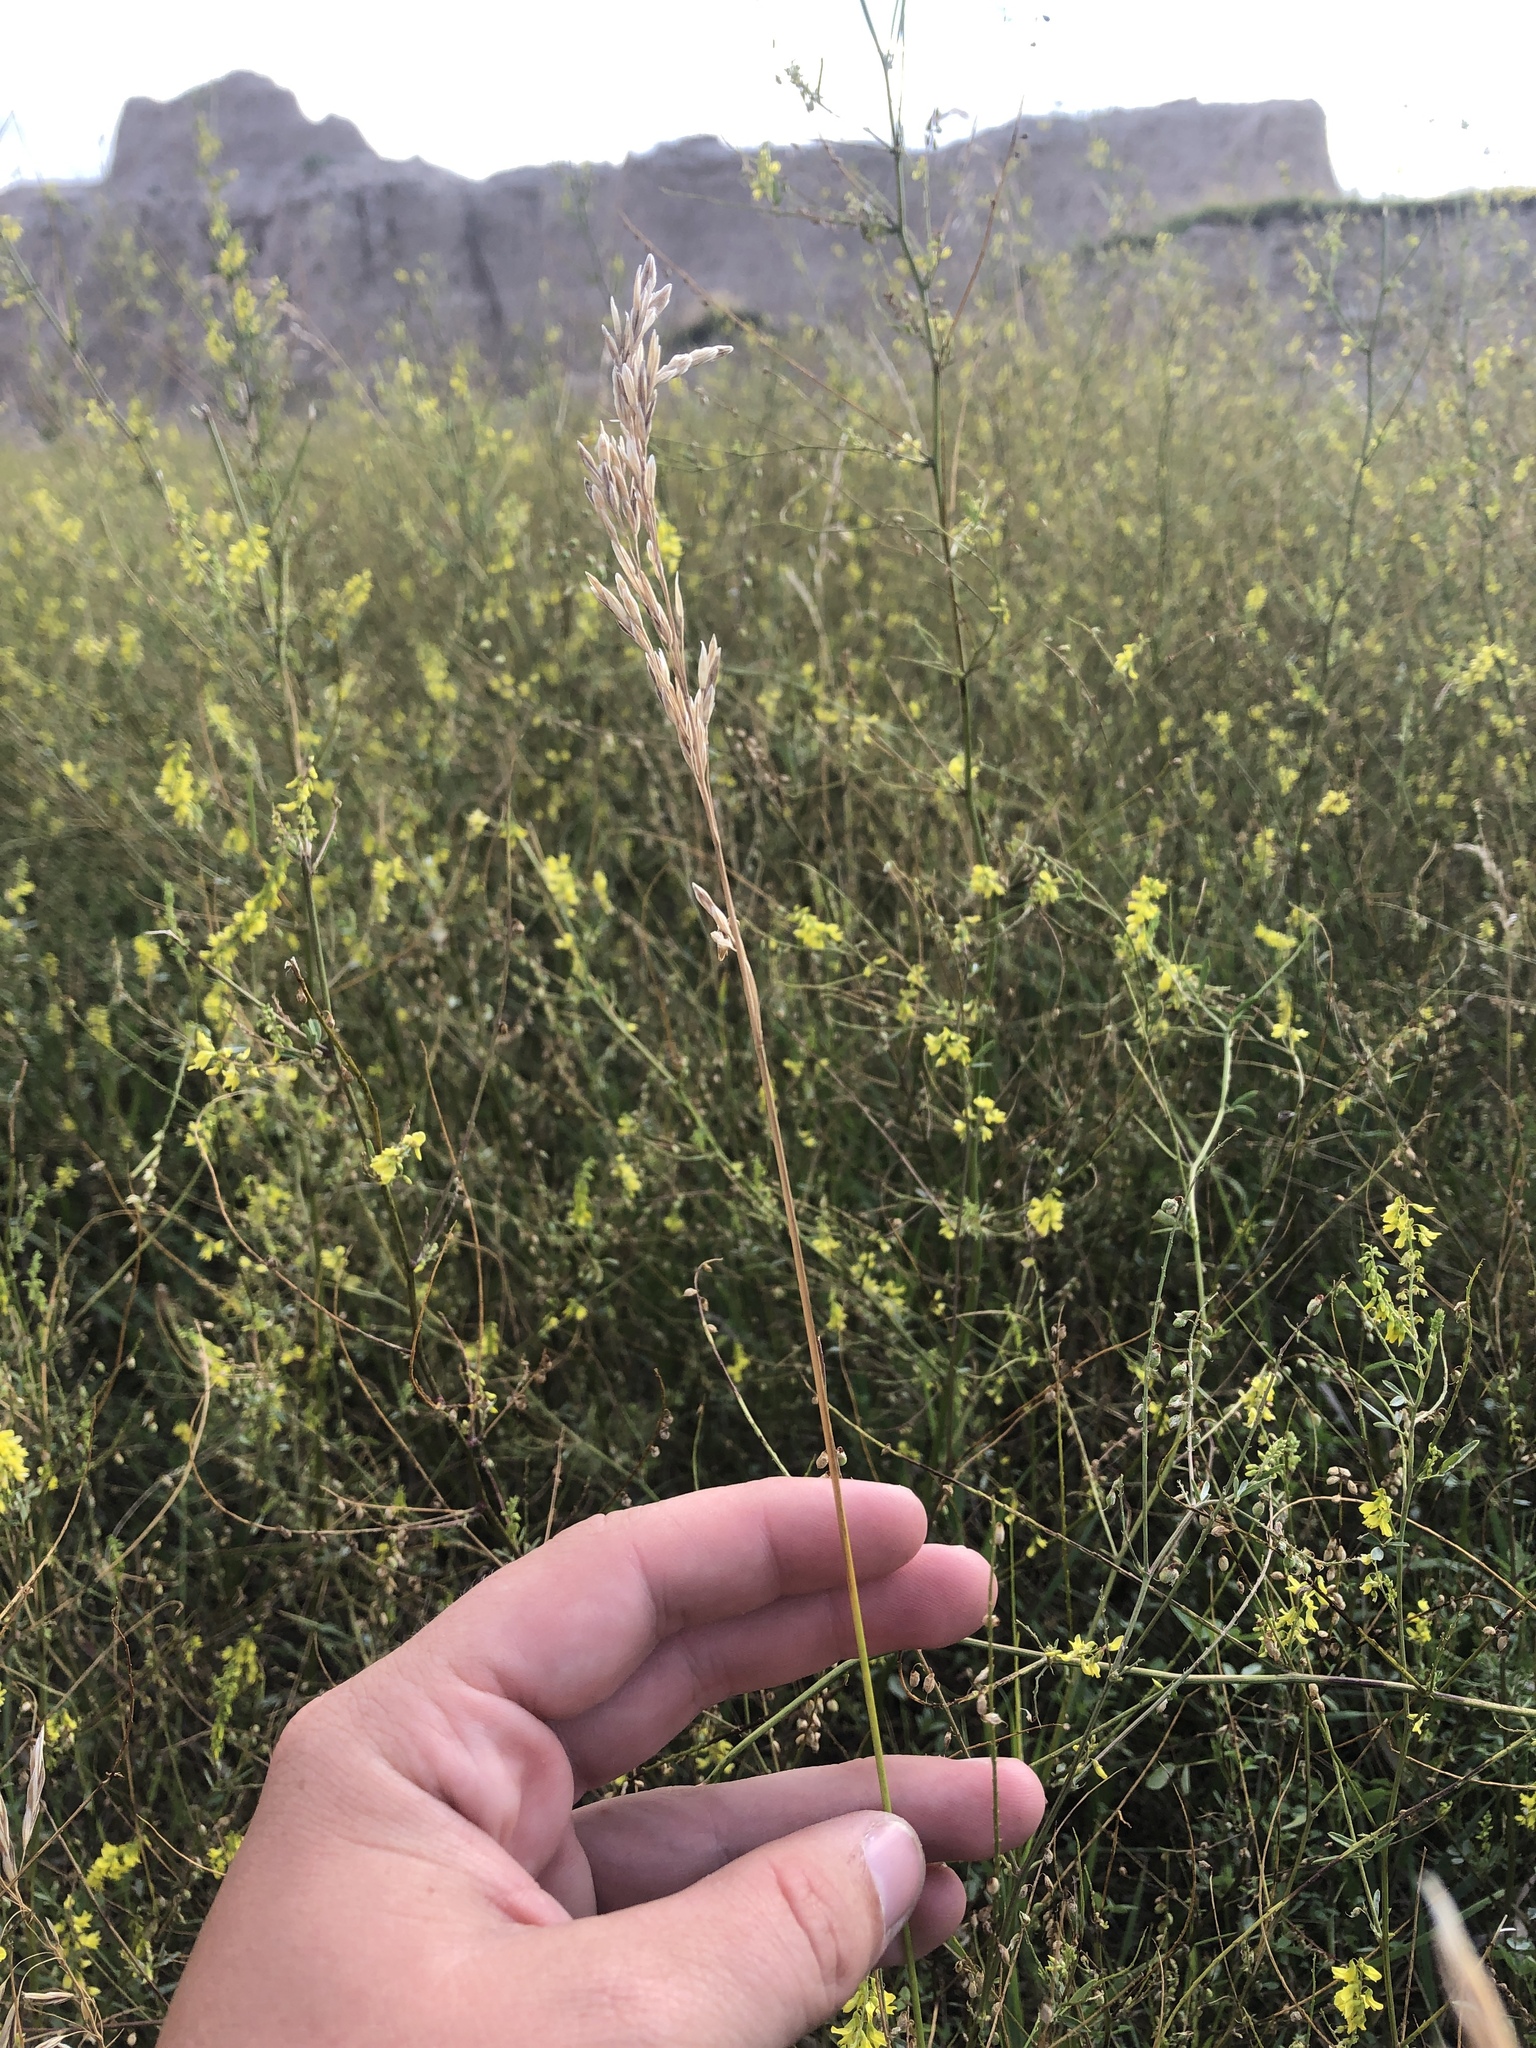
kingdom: Plantae
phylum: Tracheophyta
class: Liliopsida
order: Poales
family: Poaceae
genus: Bromus
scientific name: Bromus inermis
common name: Smooth brome
